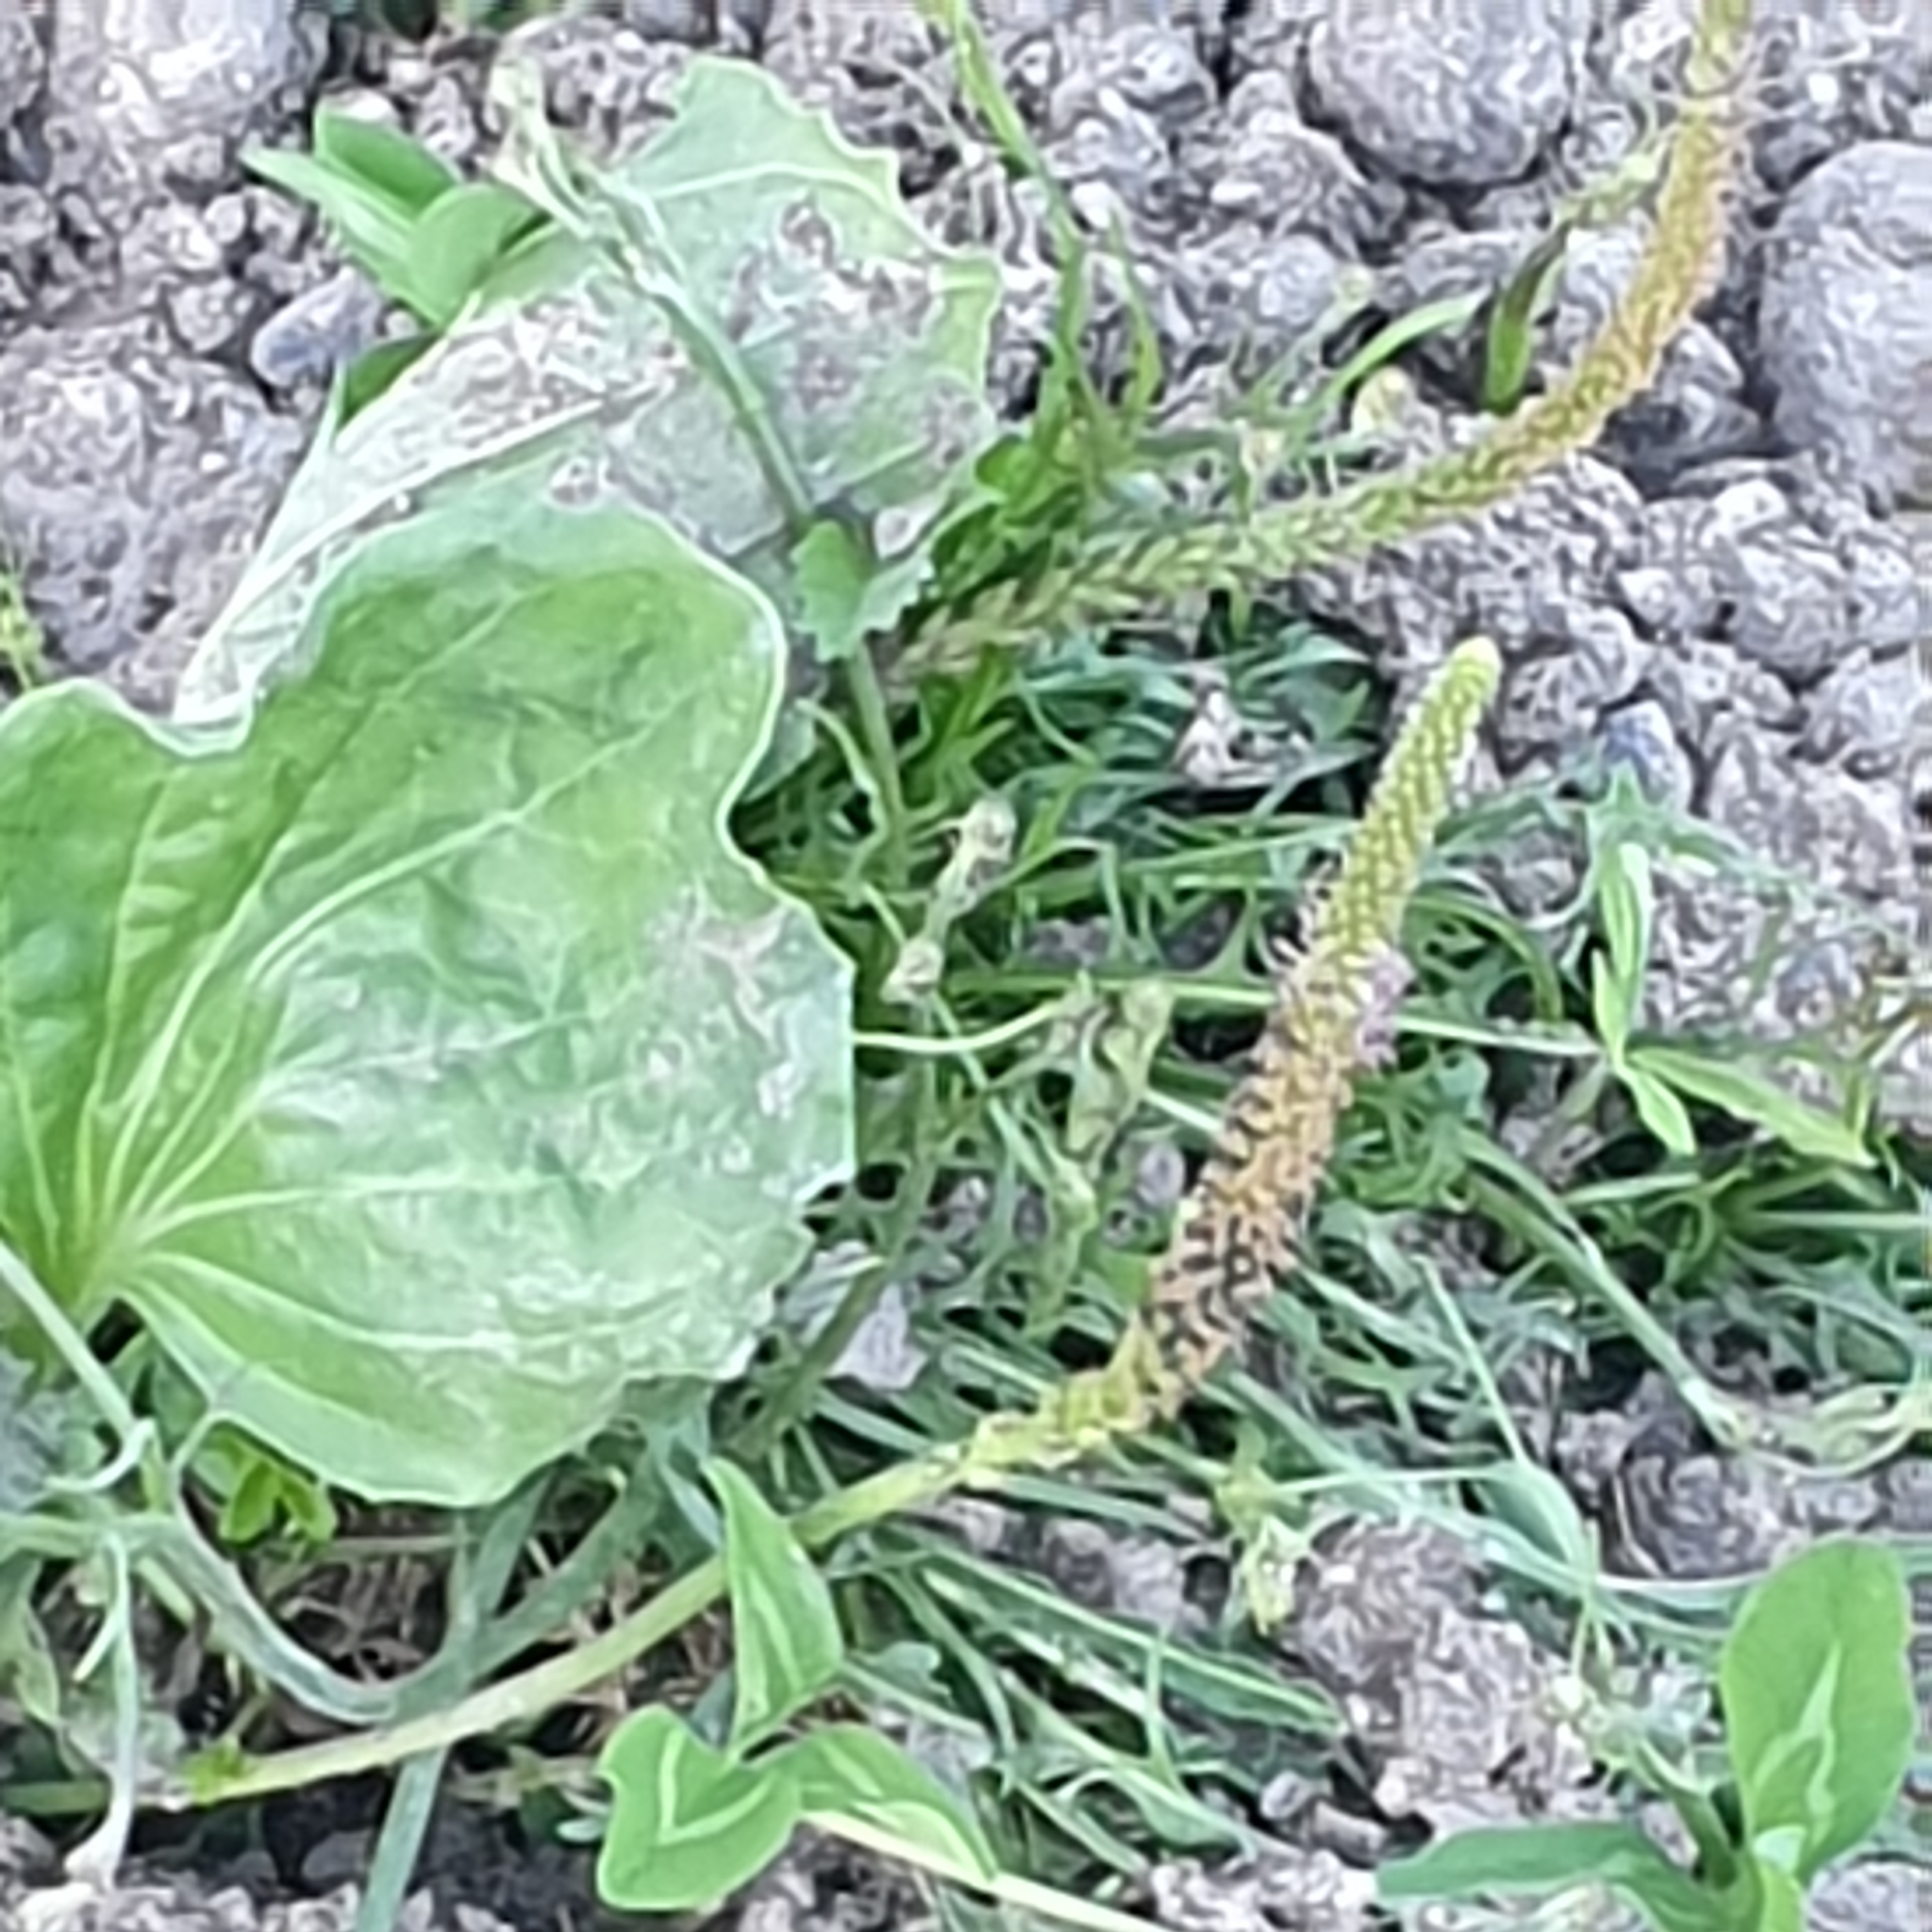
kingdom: Plantae
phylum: Tracheophyta
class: Magnoliopsida
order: Lamiales
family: Plantaginaceae
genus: Plantago
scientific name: Plantago major
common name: Common plantain
